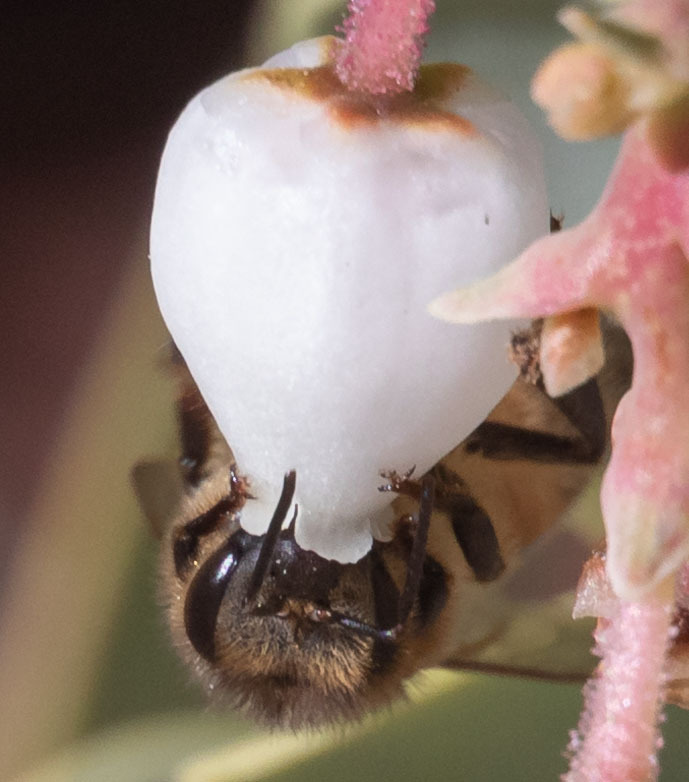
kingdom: Animalia
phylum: Arthropoda
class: Insecta
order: Hymenoptera
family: Apidae
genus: Apis
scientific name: Apis mellifera
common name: Honey bee
